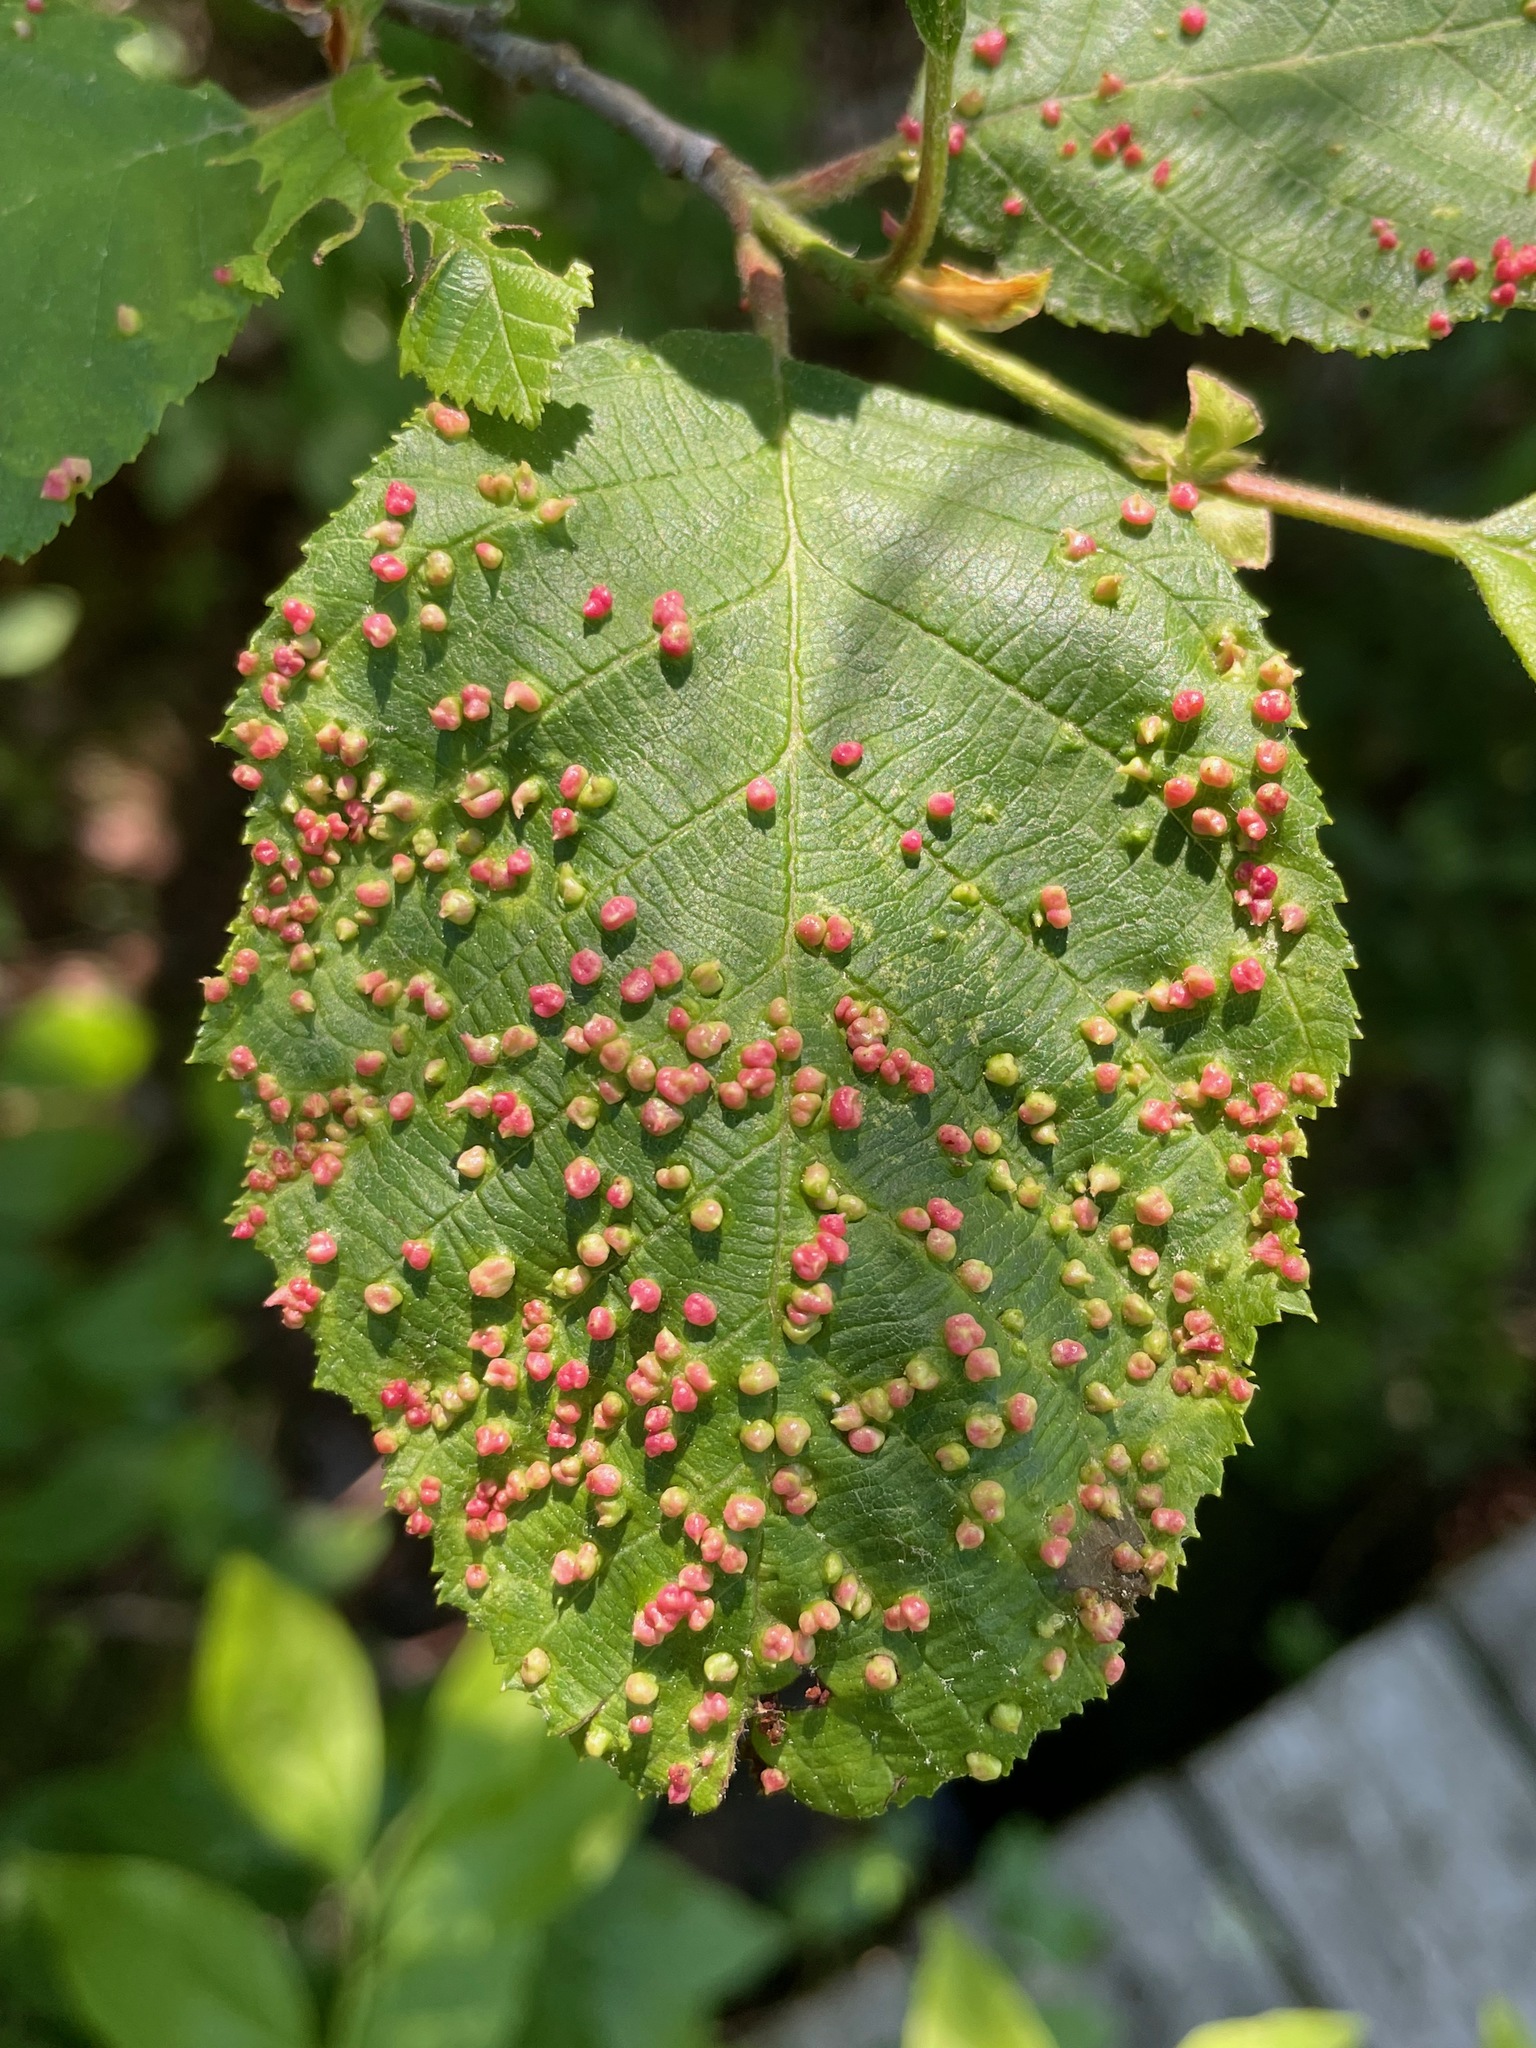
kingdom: Animalia
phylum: Arthropoda
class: Arachnida
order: Trombidiformes
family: Eriophyidae
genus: Eriophyes
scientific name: Eriophyes laevis
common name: Alder leaf gall mite
